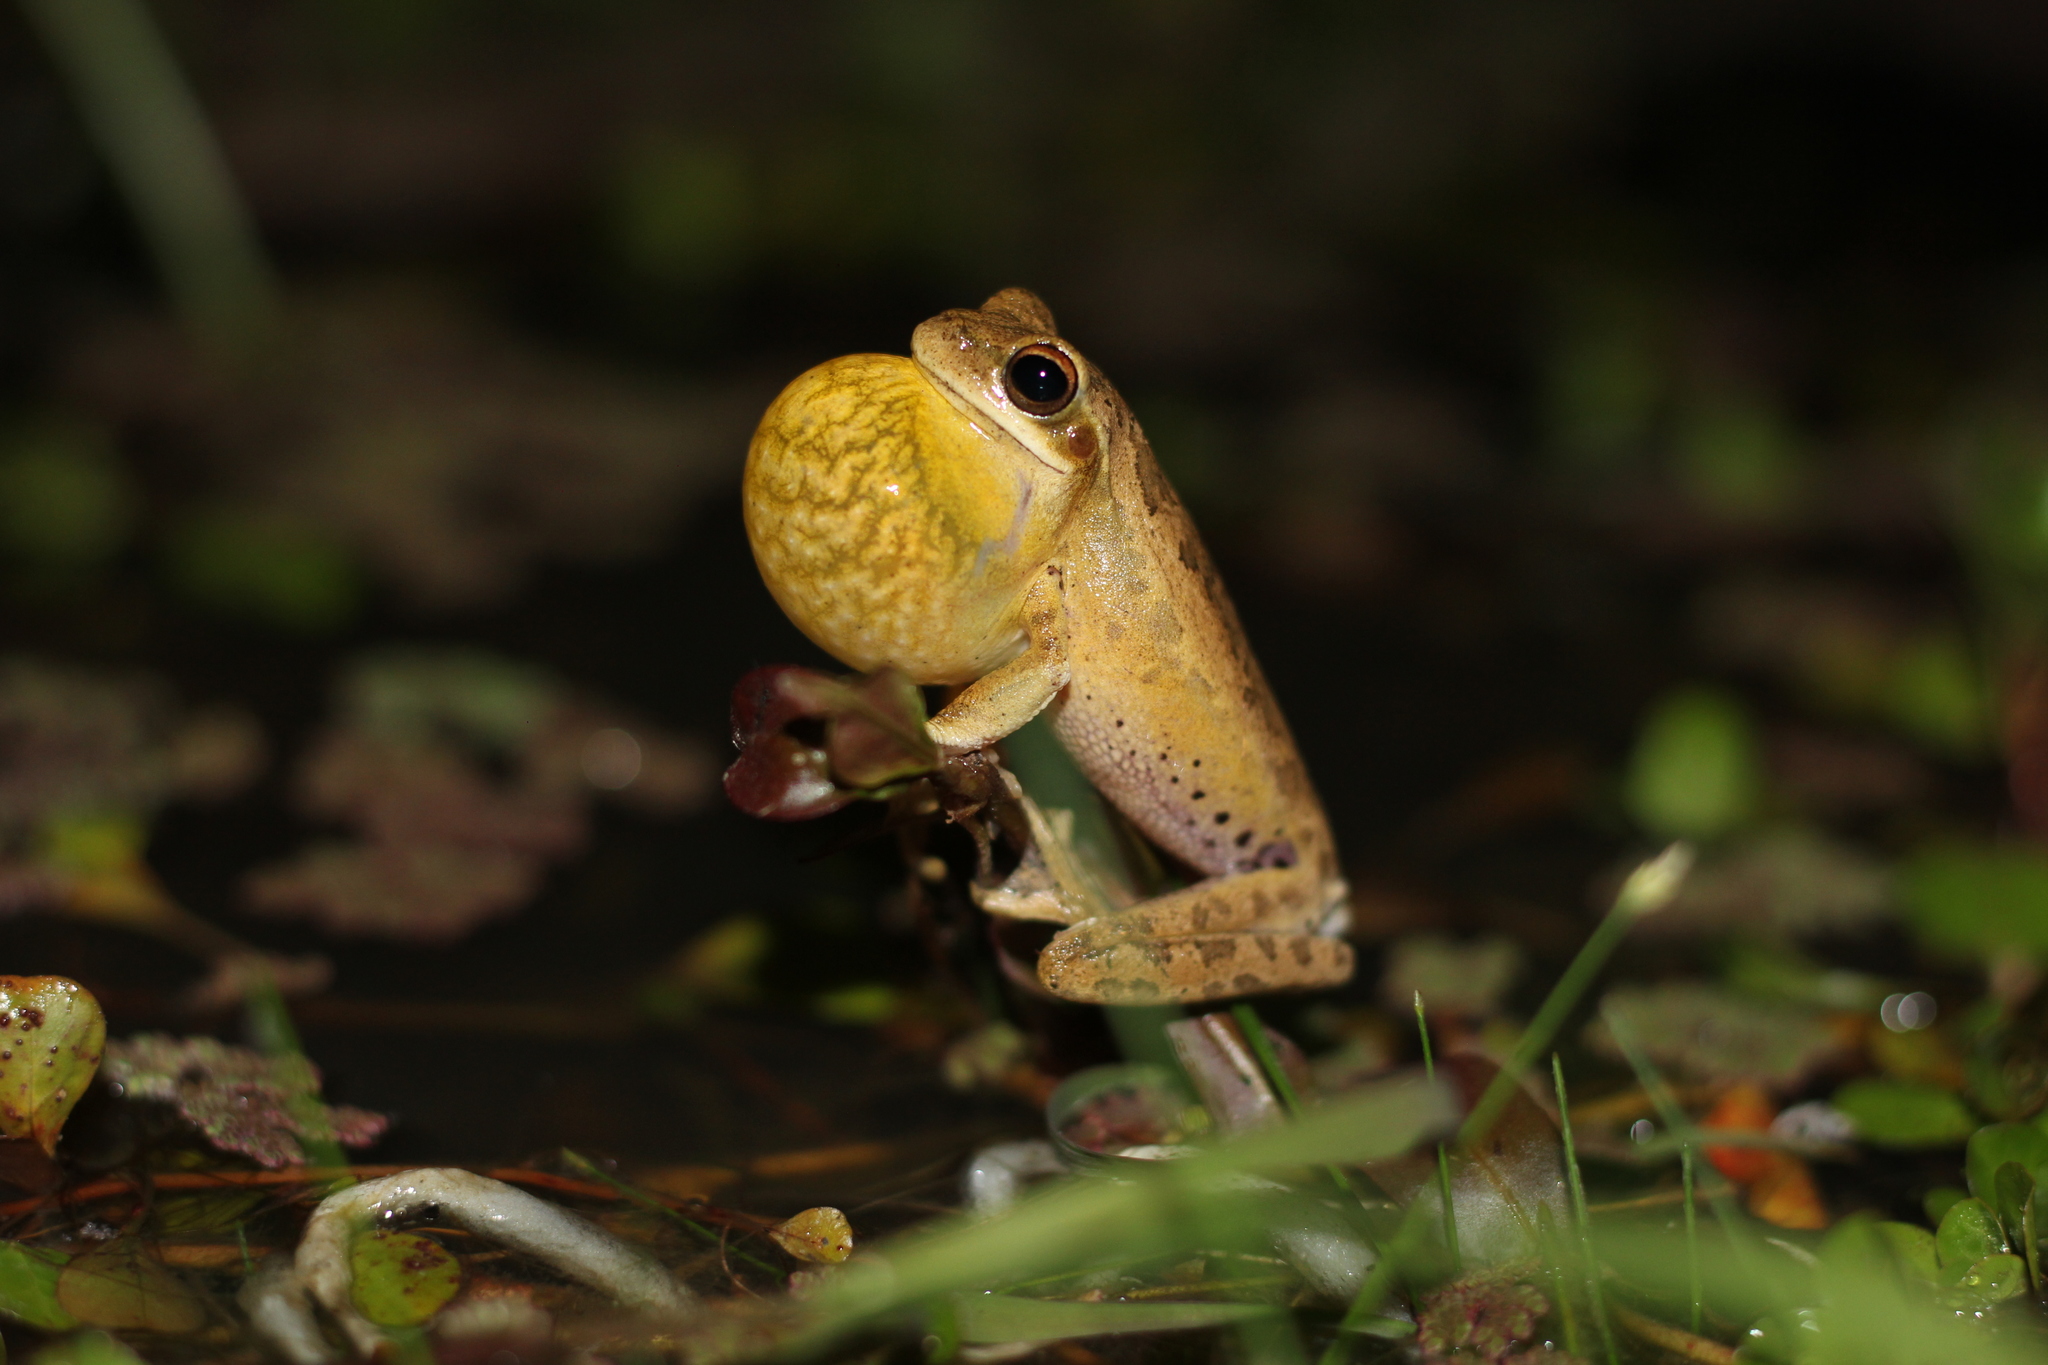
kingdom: Animalia
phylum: Chordata
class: Amphibia
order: Anura
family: Hylidae
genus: Boana
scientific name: Boana pulchella
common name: Montevideo treefrog
